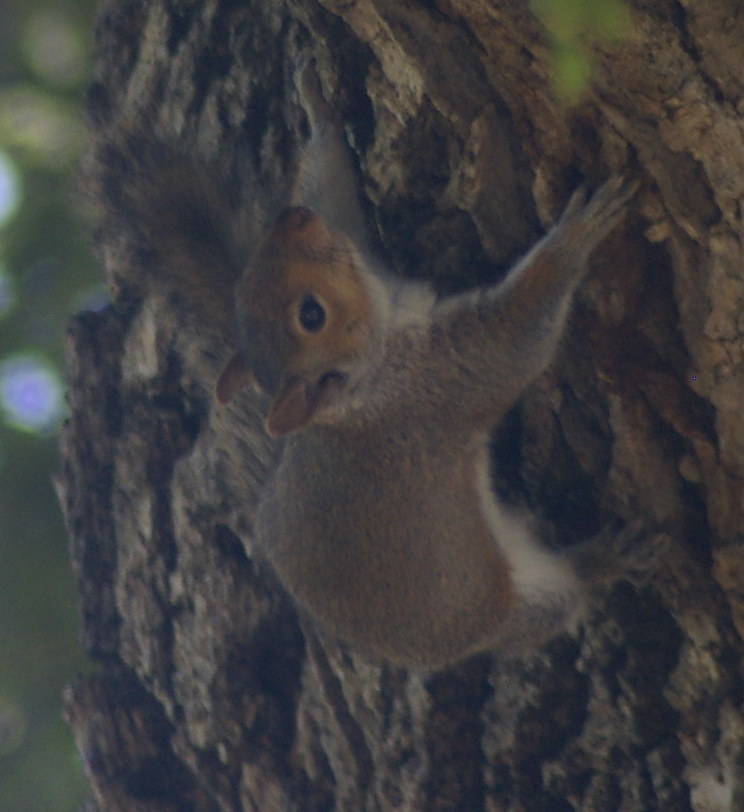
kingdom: Animalia
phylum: Chordata
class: Mammalia
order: Rodentia
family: Sciuridae
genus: Sciurus
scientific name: Sciurus carolinensis
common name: Eastern gray squirrel
